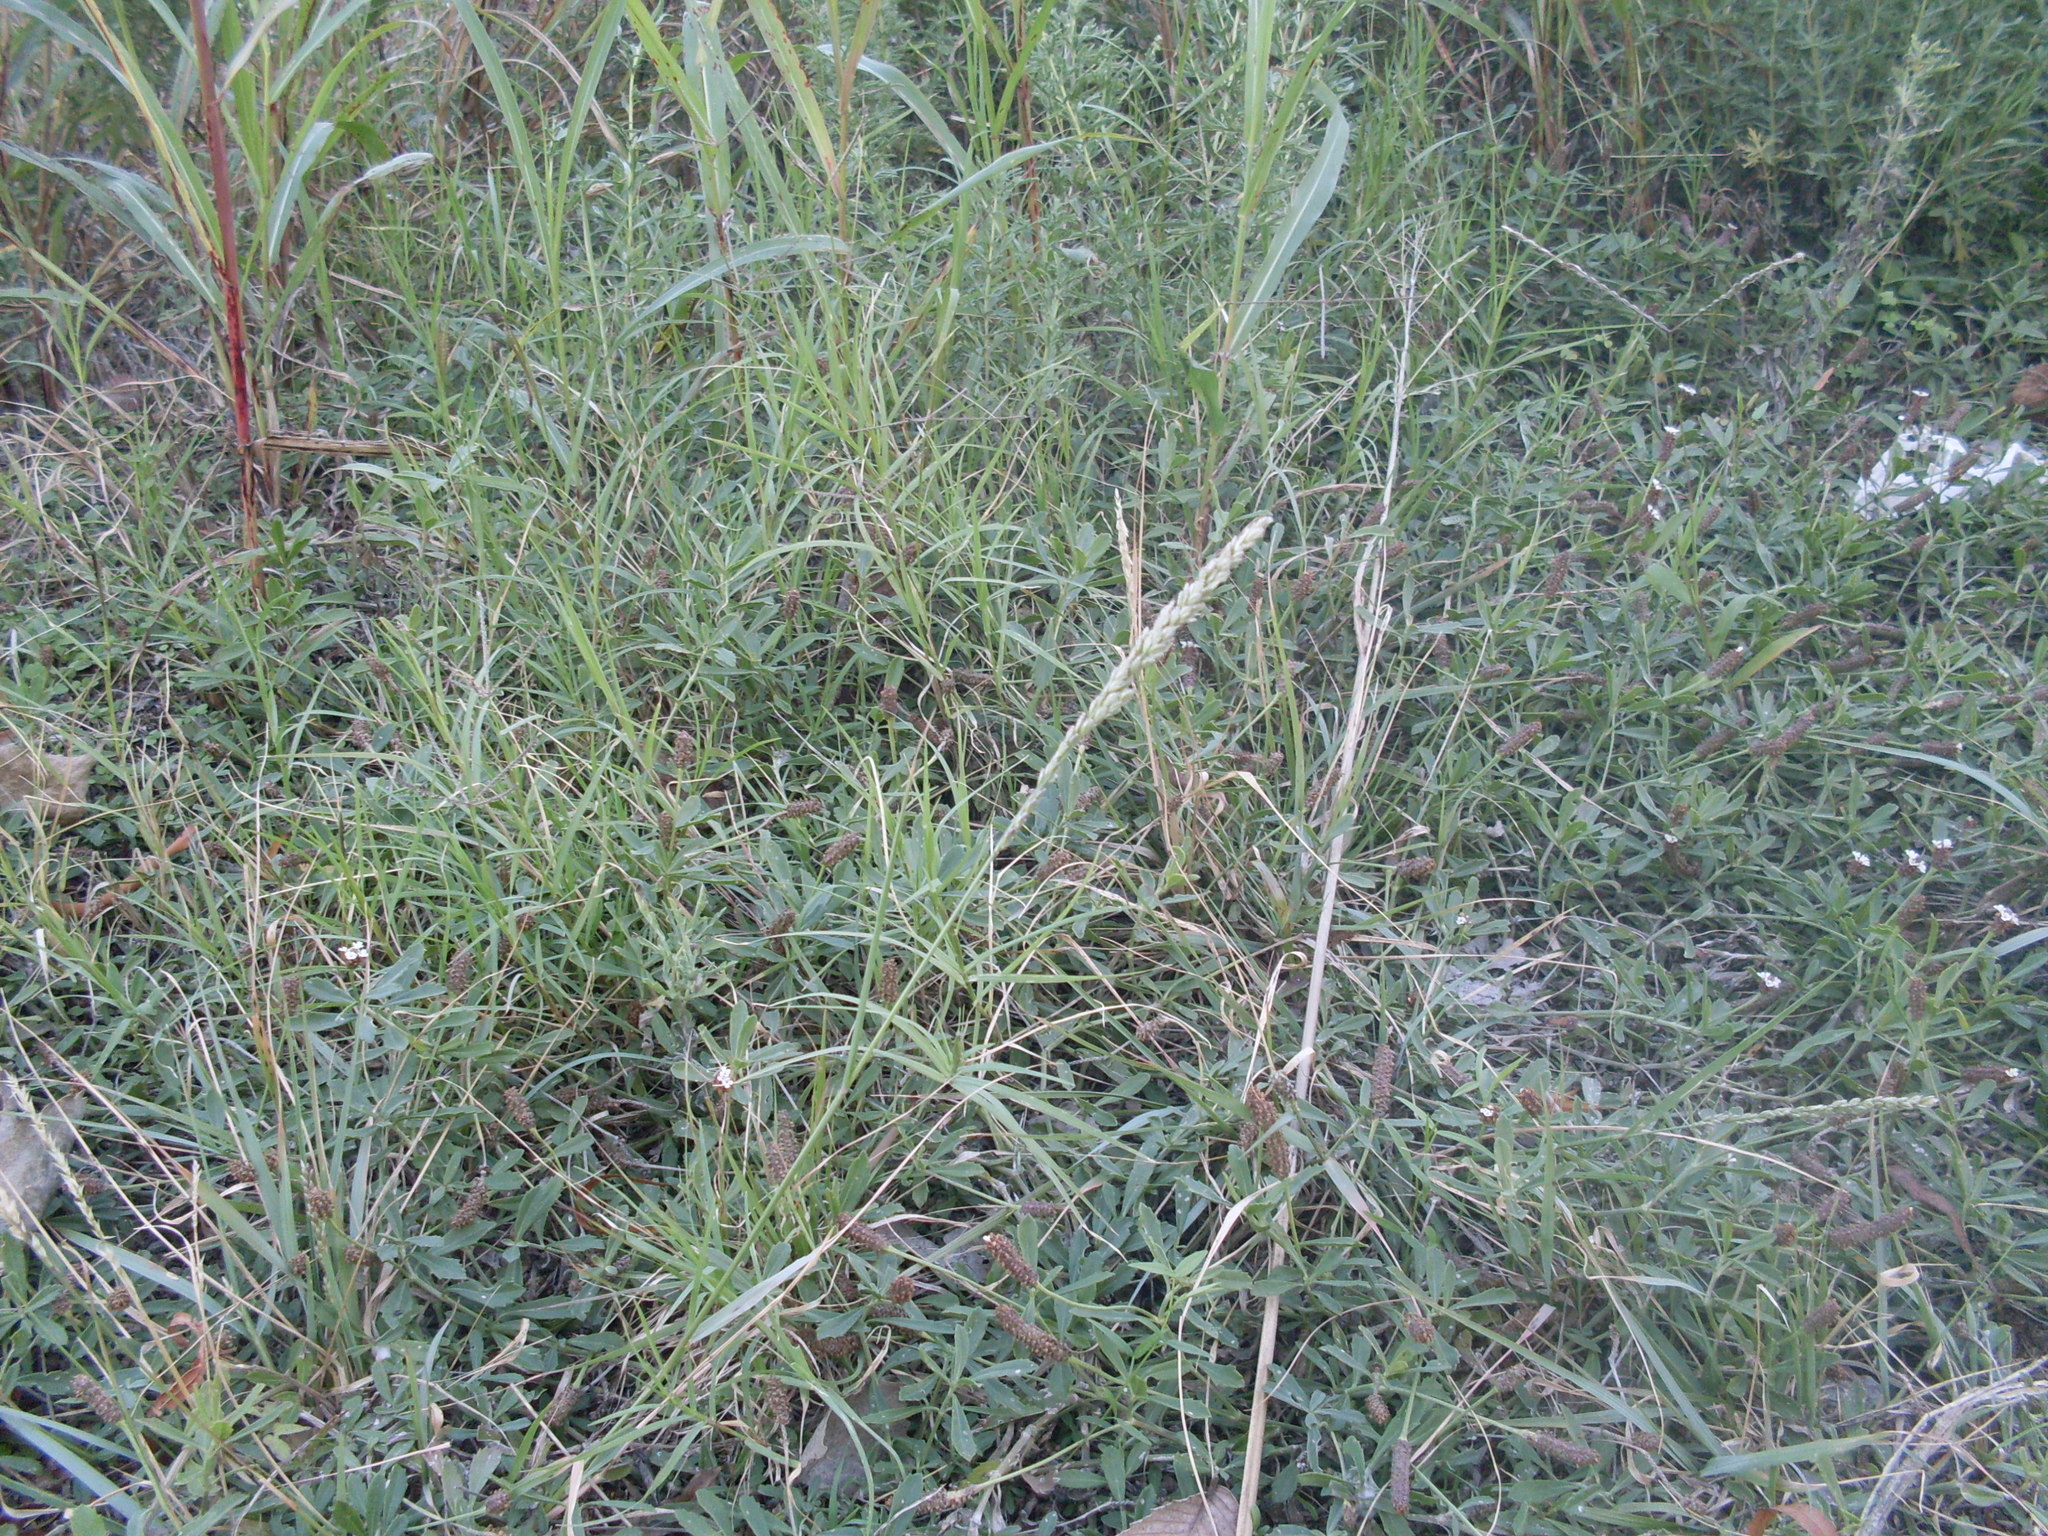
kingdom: Plantae
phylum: Tracheophyta
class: Liliopsida
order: Poales
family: Poaceae
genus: Tridens
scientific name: Tridens albescens
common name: White tridens
